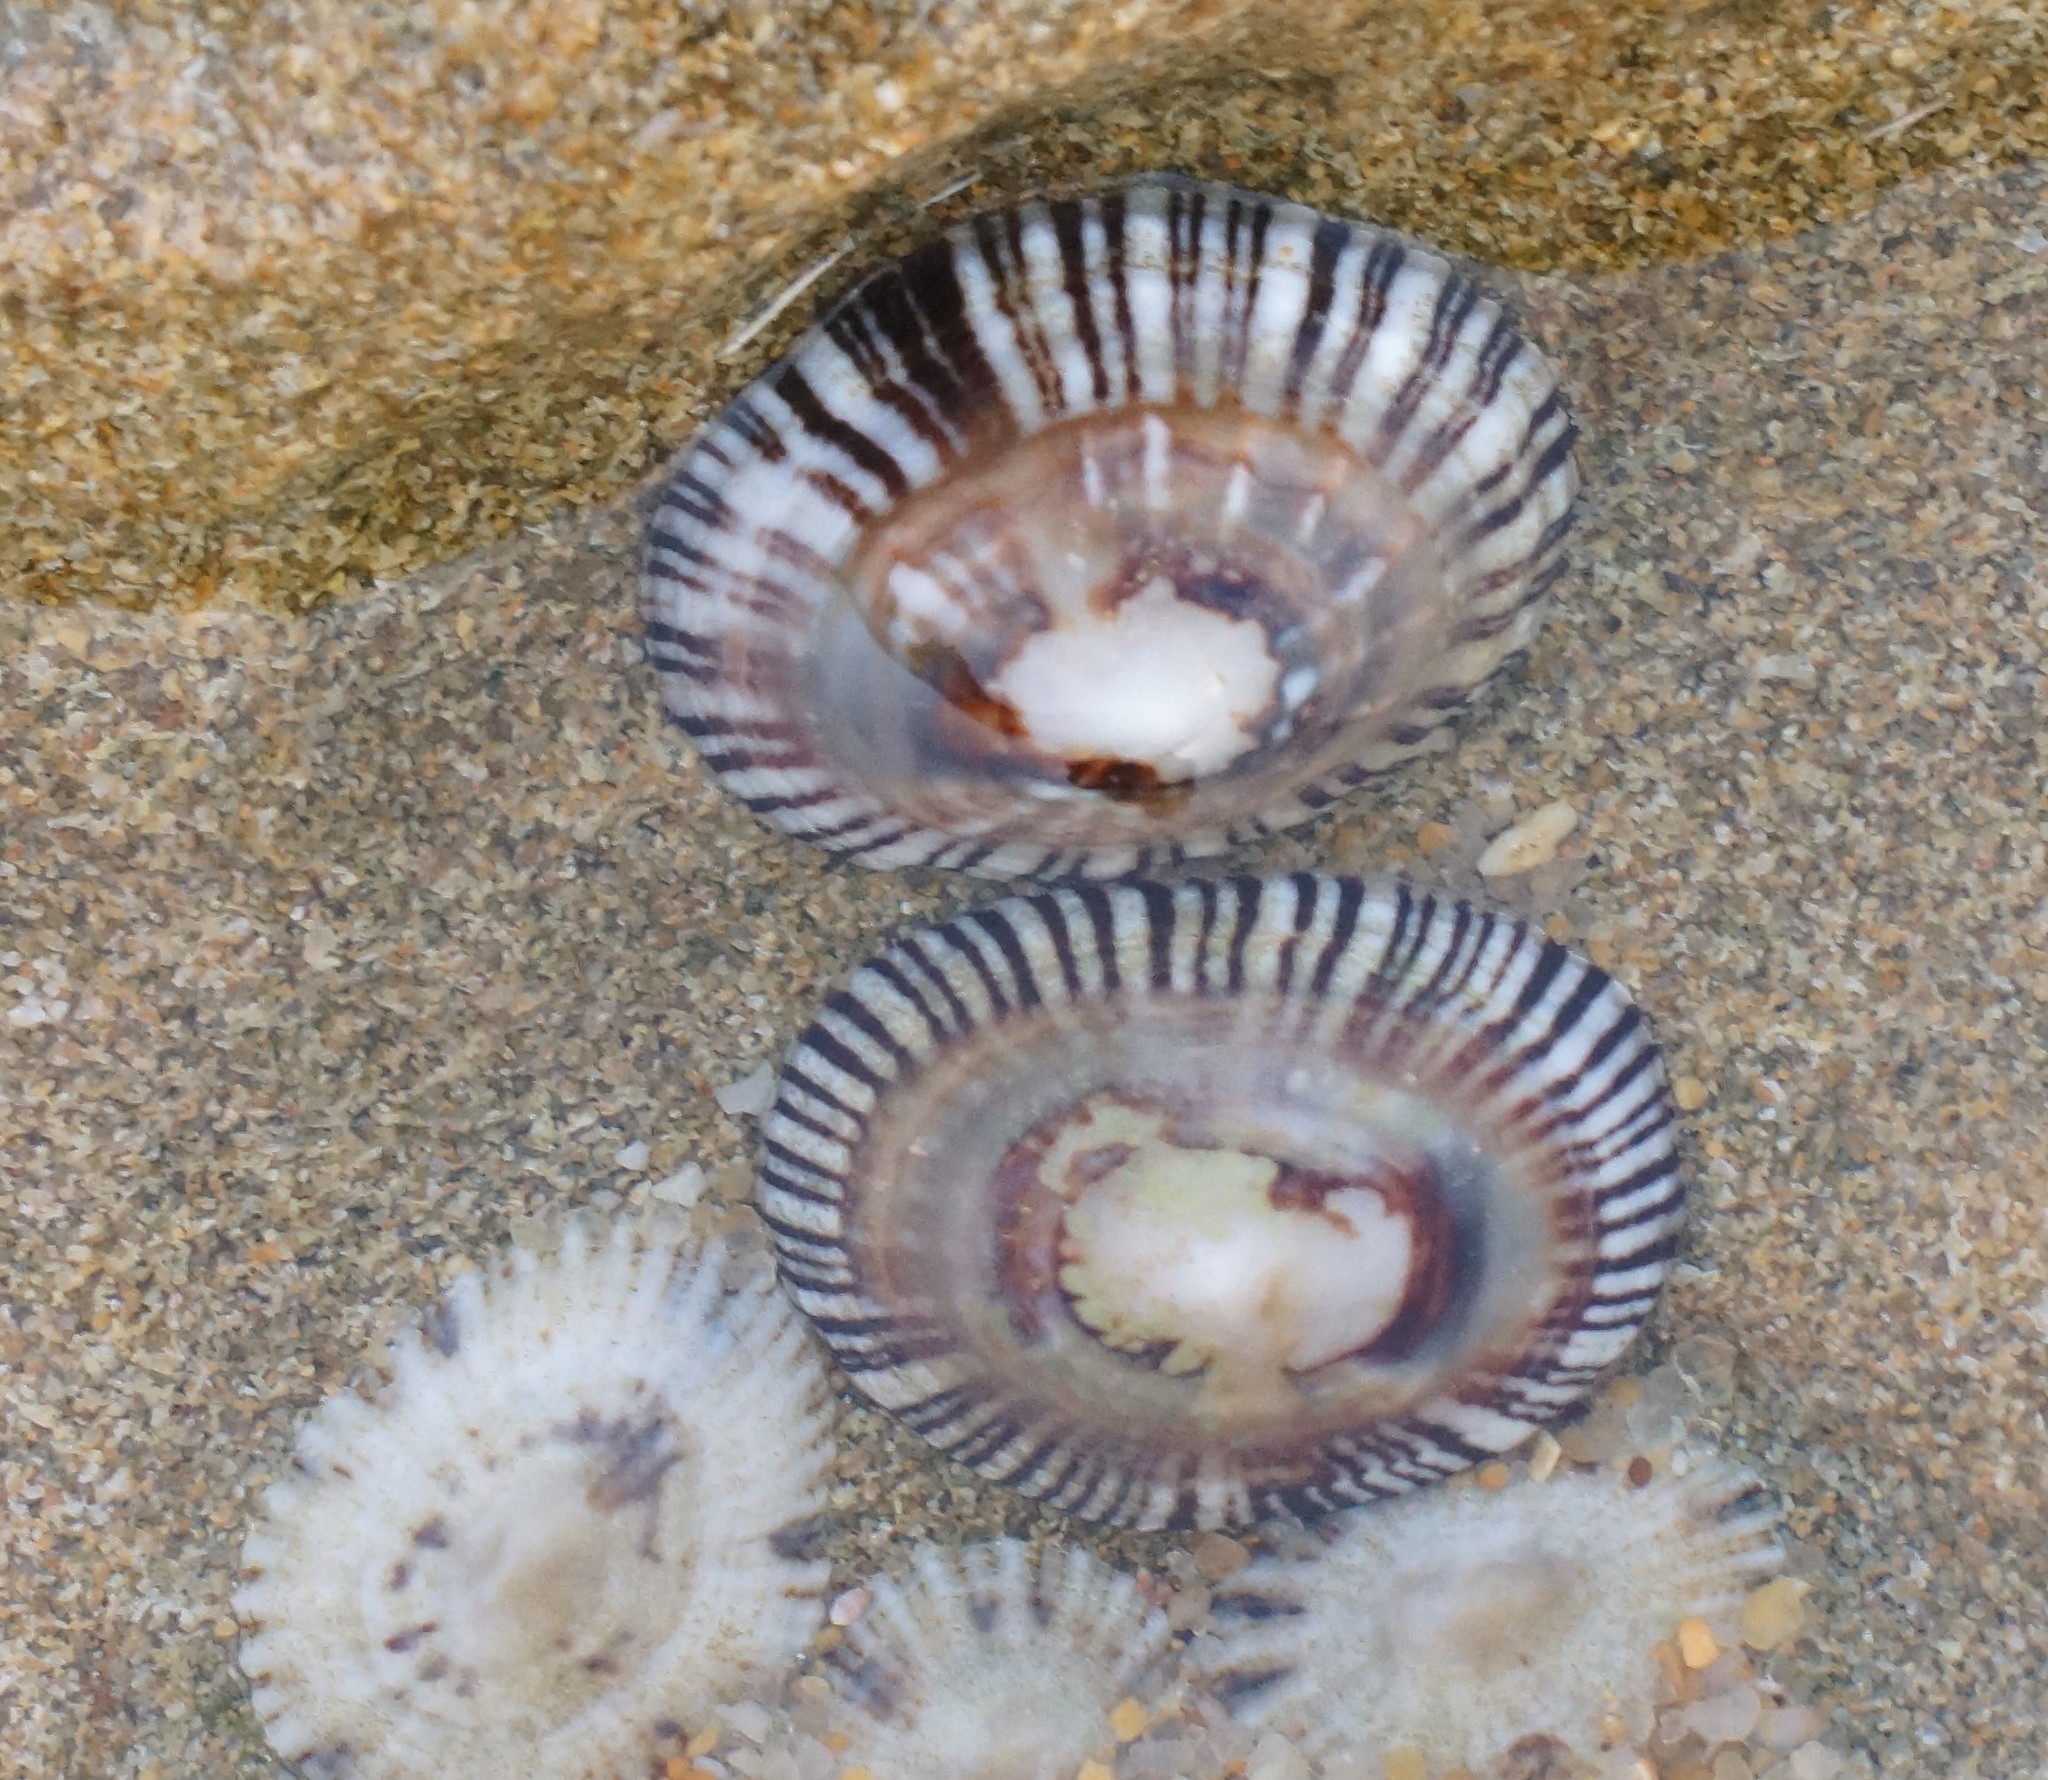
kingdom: Animalia
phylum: Mollusca
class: Gastropoda
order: Siphonariida
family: Siphonariidae
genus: Siphonaria
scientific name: Siphonaria funiculata
